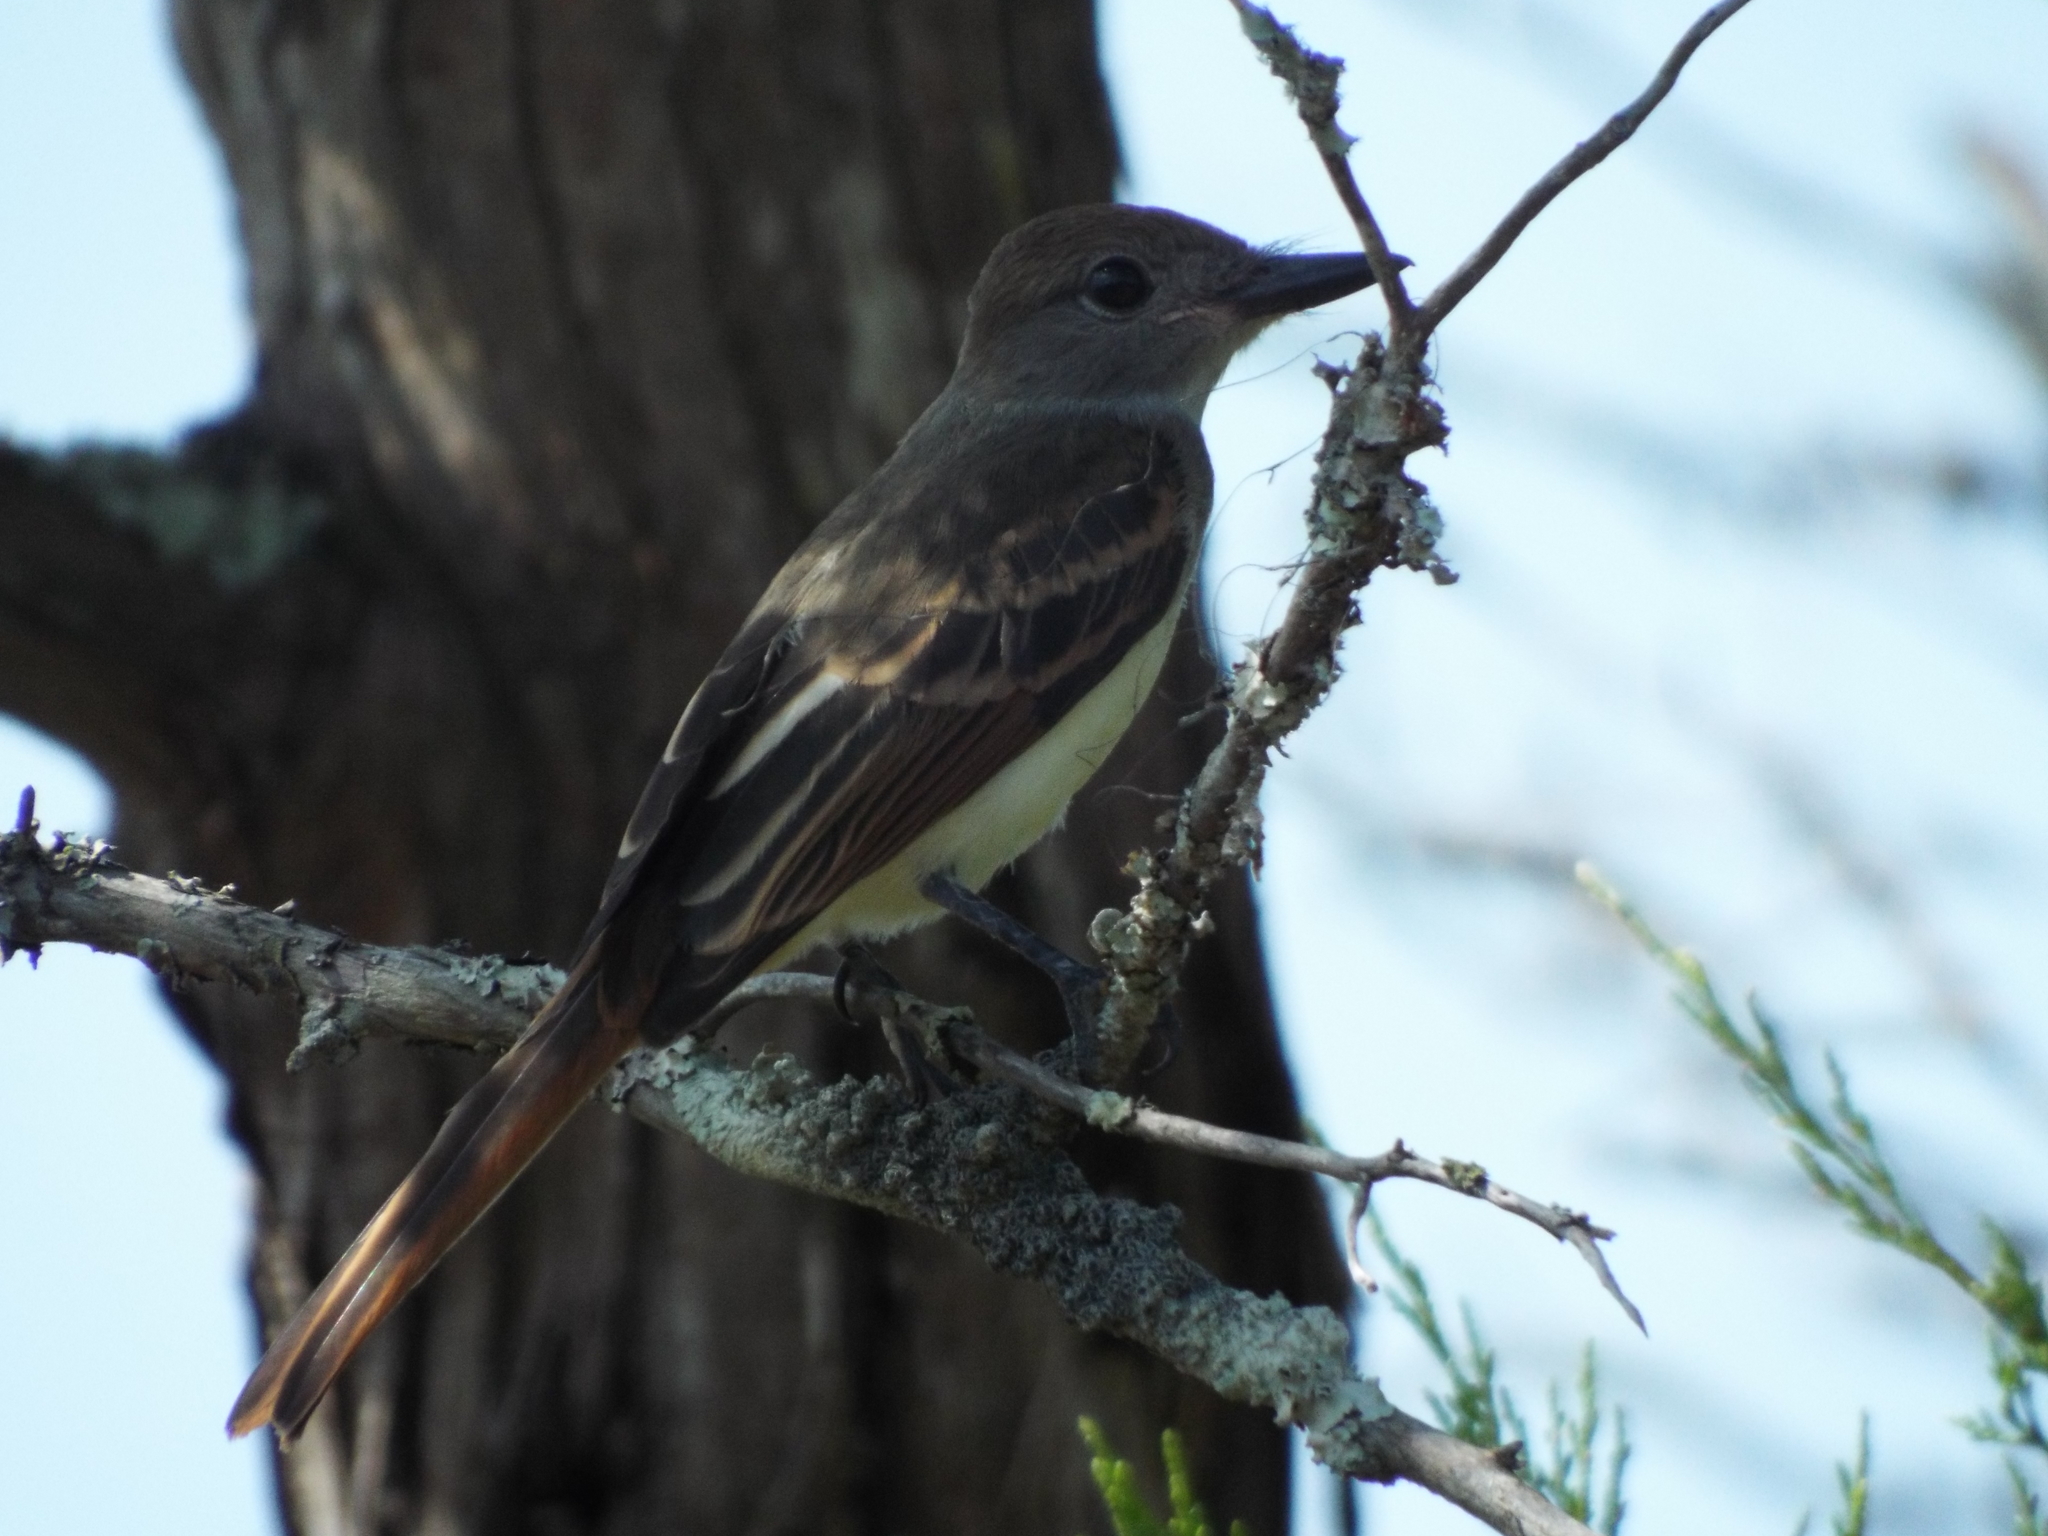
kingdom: Animalia
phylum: Chordata
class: Aves
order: Passeriformes
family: Tyrannidae
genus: Myiarchus
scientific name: Myiarchus crinitus
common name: Great crested flycatcher
